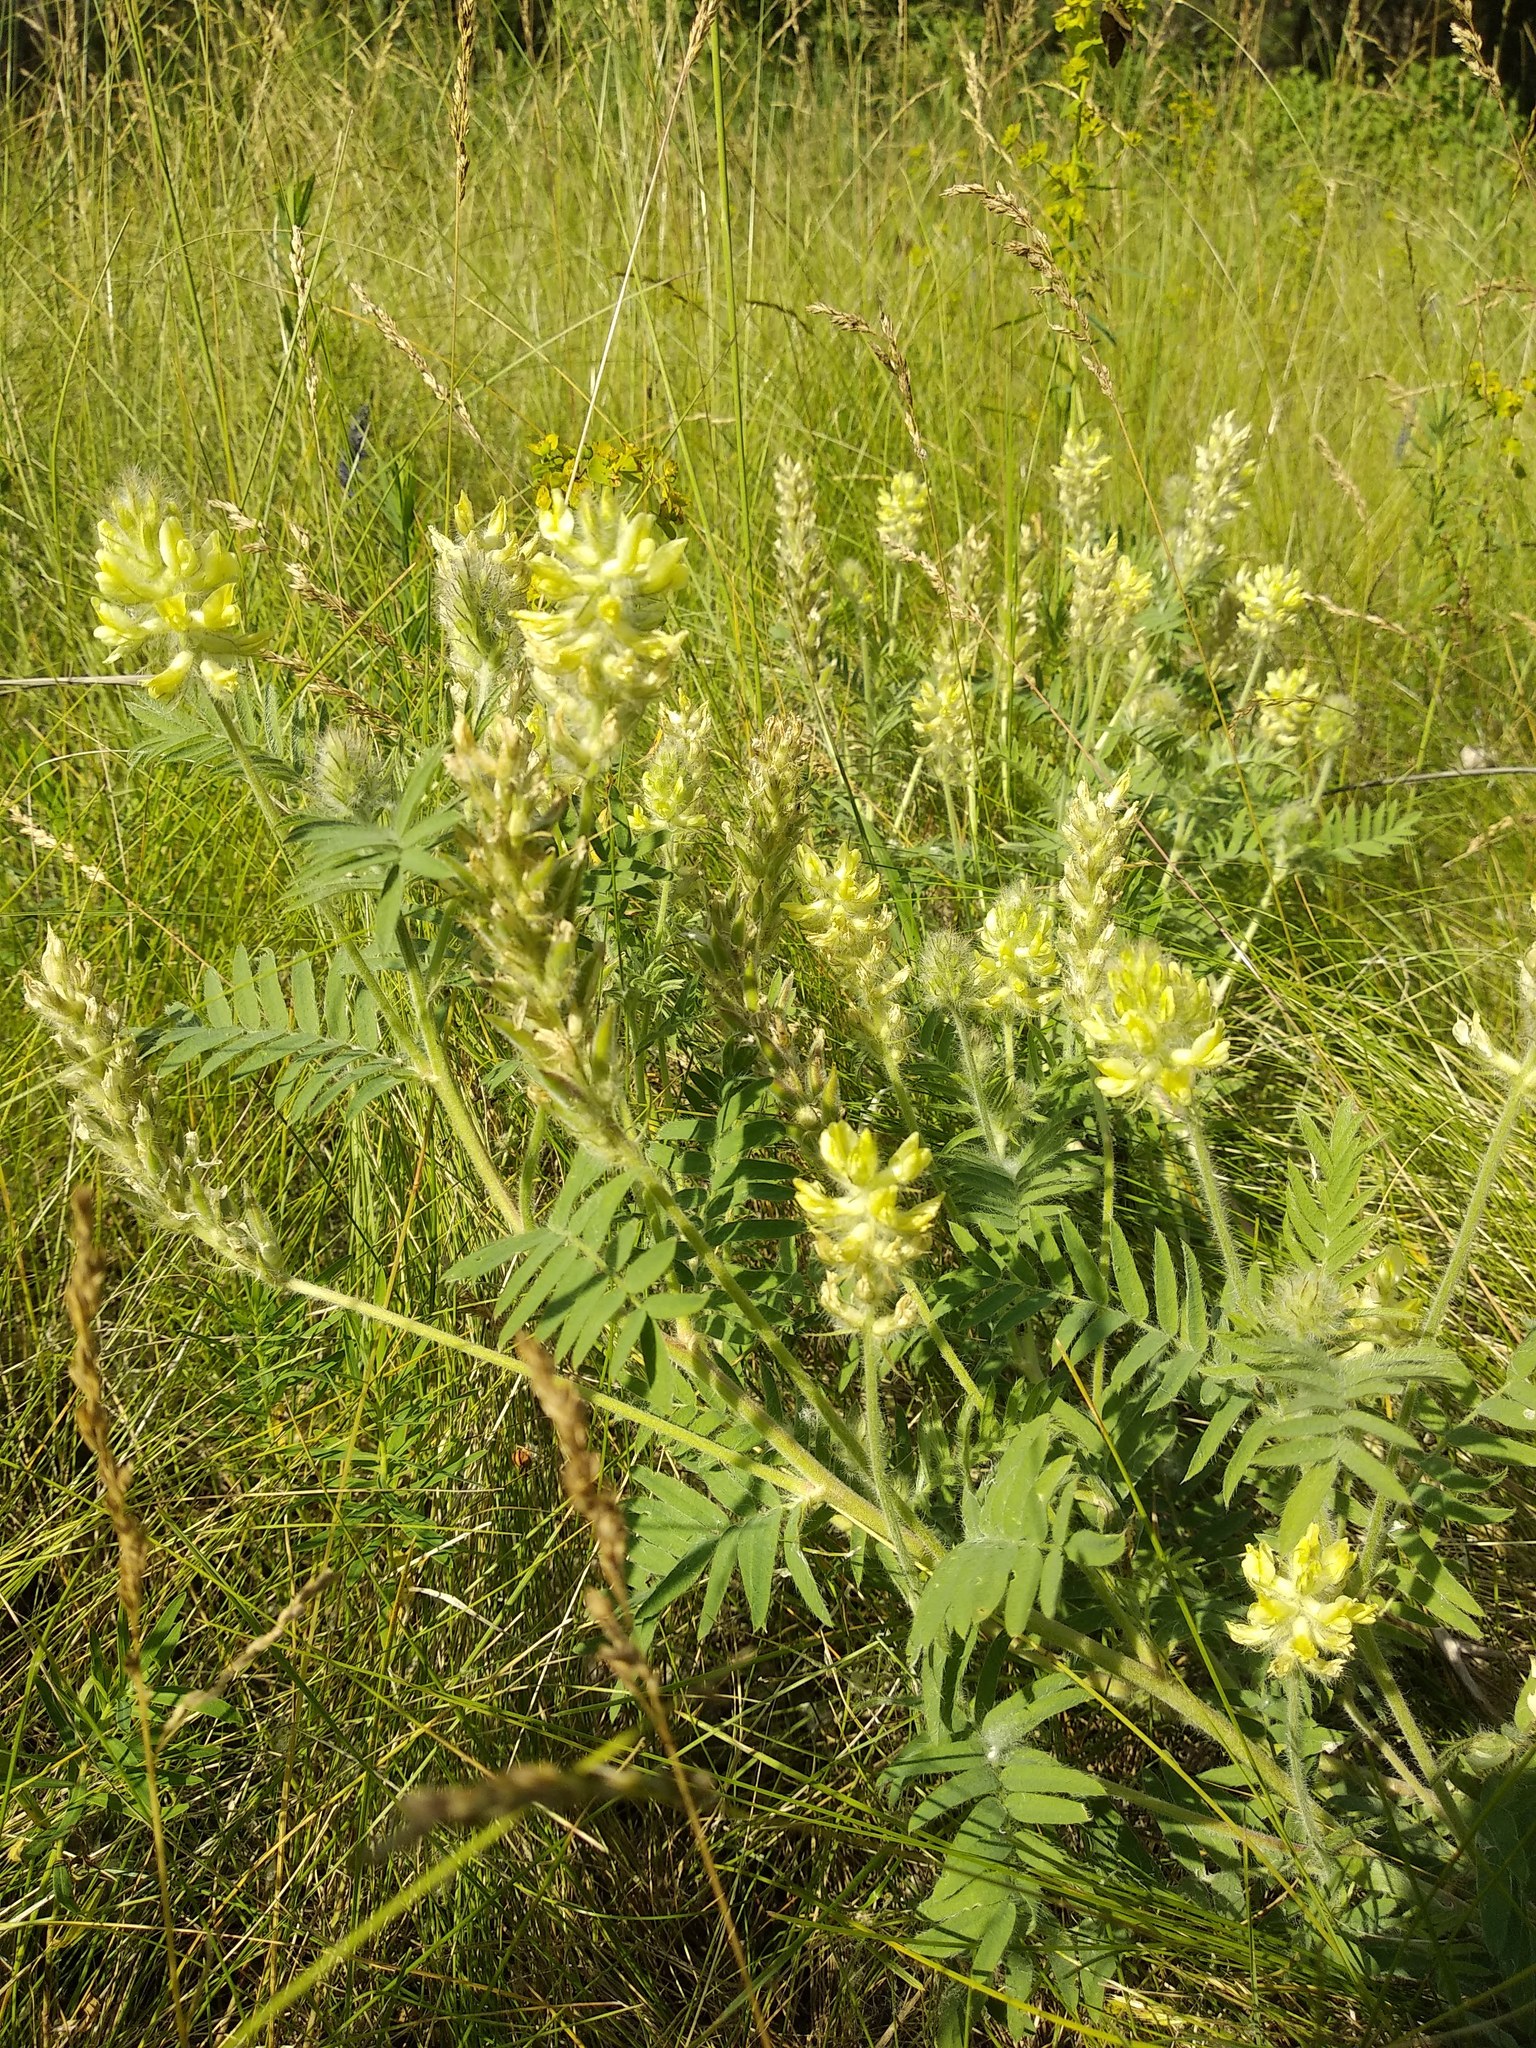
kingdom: Plantae
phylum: Tracheophyta
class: Magnoliopsida
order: Fabales
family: Fabaceae
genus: Oxytropis
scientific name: Oxytropis pilosa
